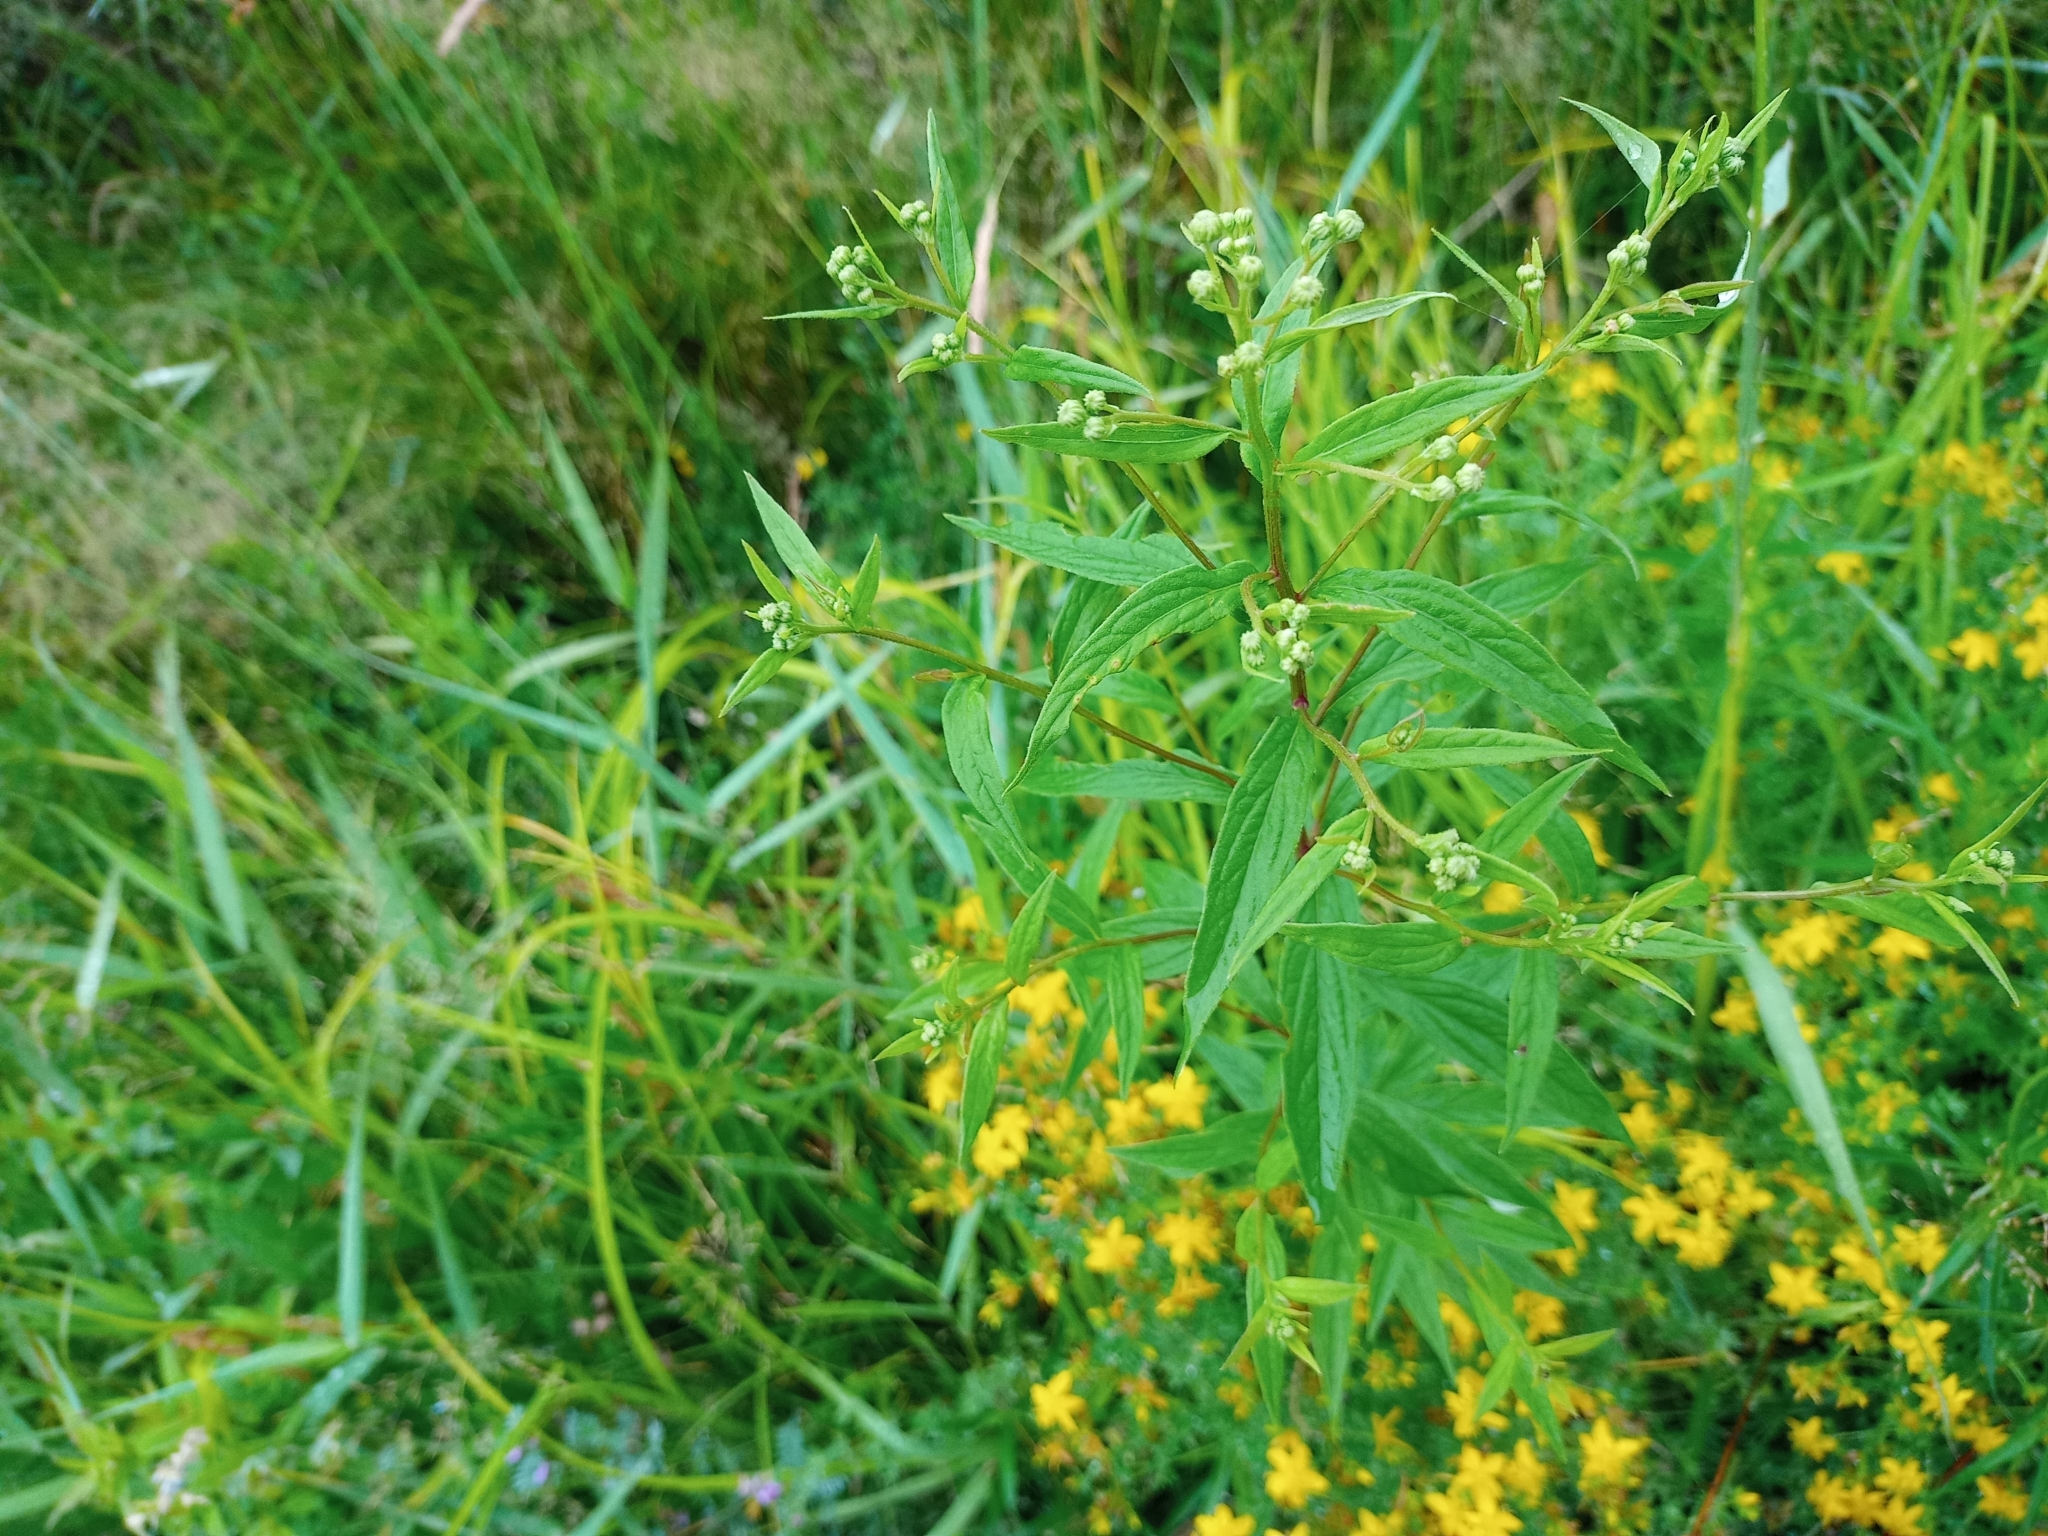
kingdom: Plantae
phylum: Tracheophyta
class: Magnoliopsida
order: Asterales
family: Asteraceae
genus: Doellingeria
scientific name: Doellingeria umbellata
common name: Flat-top white aster
